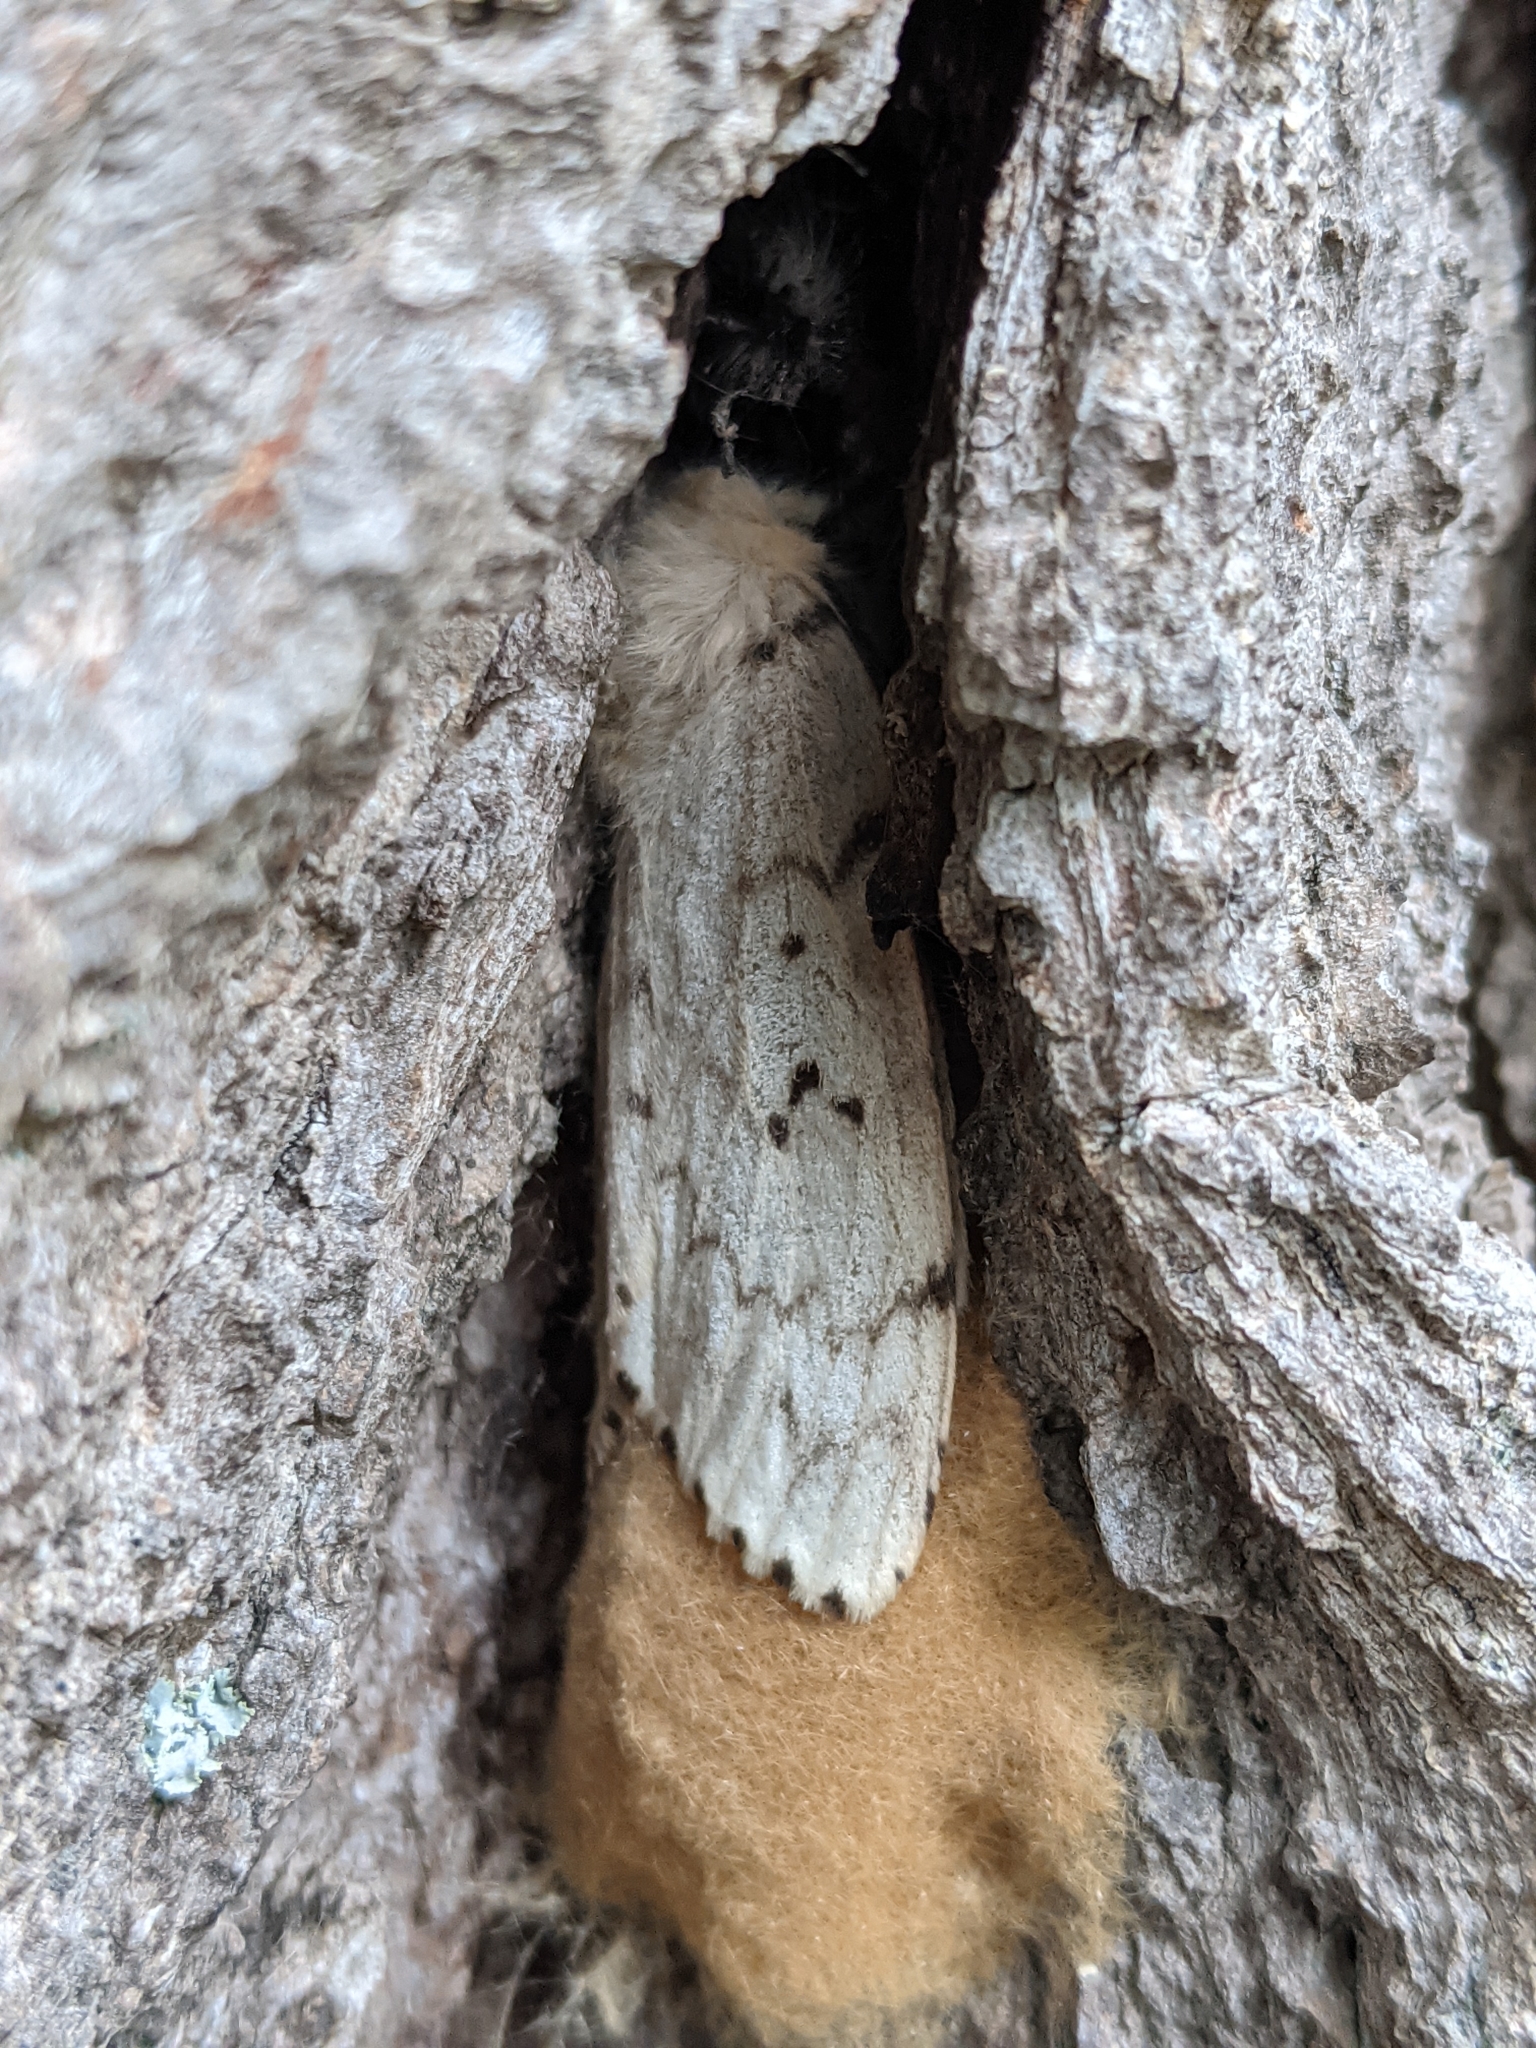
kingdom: Animalia
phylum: Arthropoda
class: Insecta
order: Lepidoptera
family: Erebidae
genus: Lymantria
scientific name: Lymantria dispar
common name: Gypsy moth
